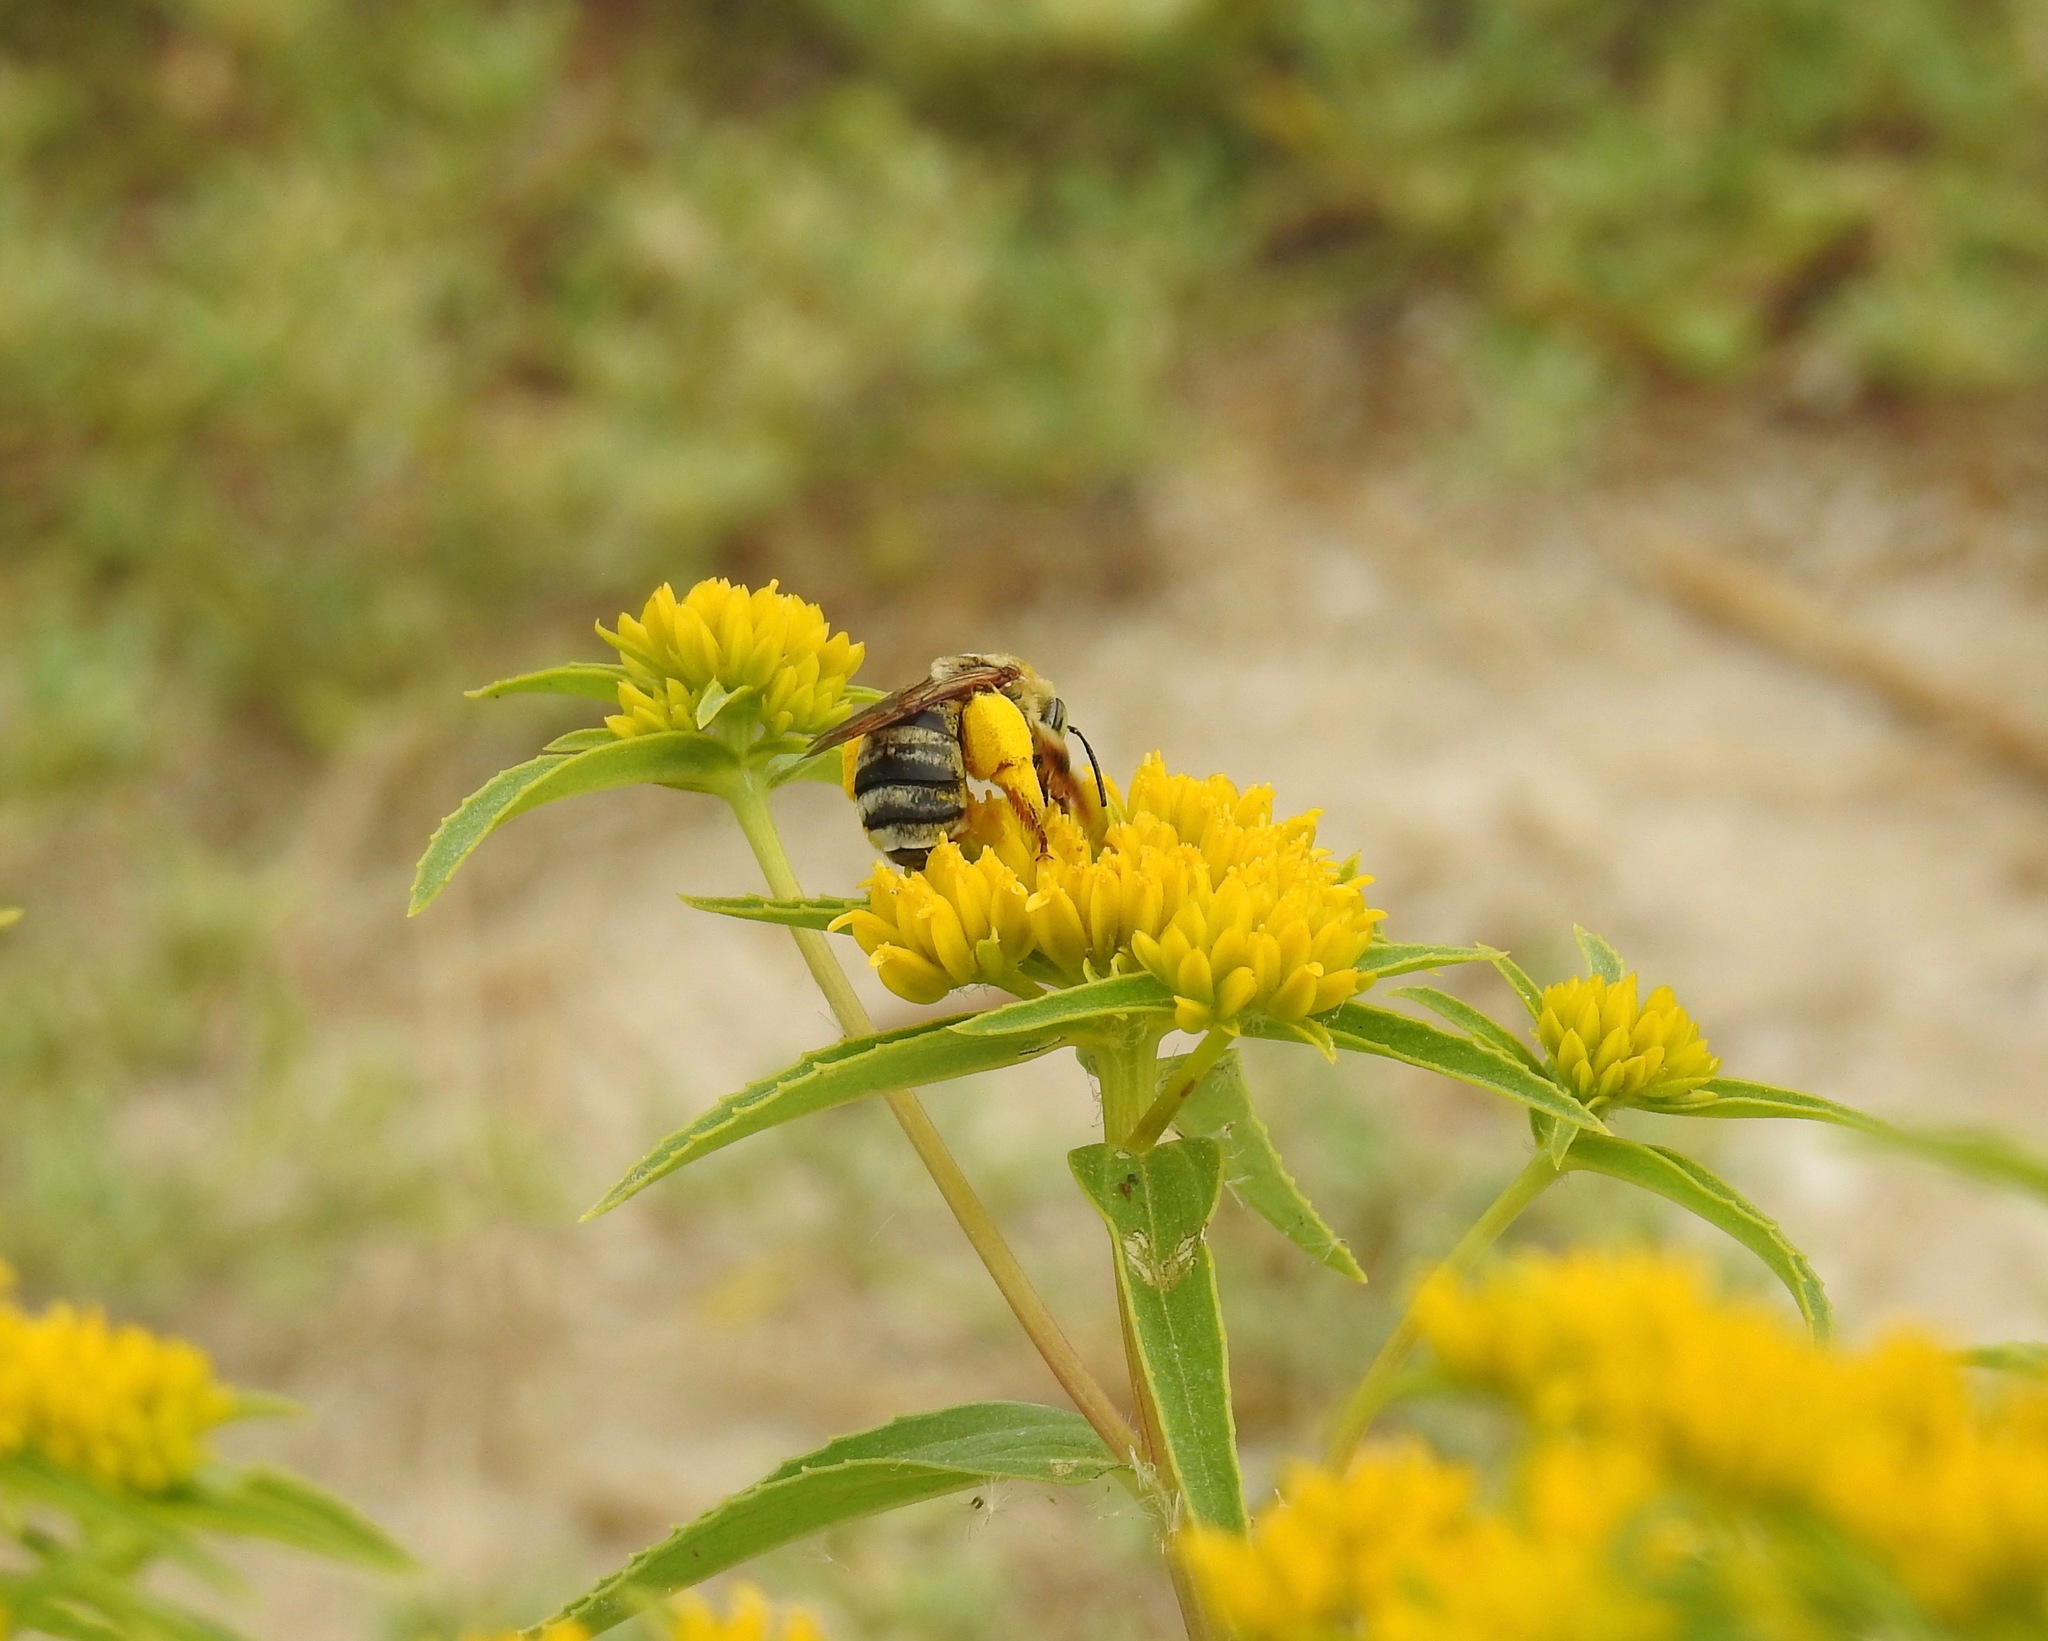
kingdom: Animalia
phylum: Arthropoda
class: Insecta
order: Hymenoptera
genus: Epimelissodes
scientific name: Epimelissodes
